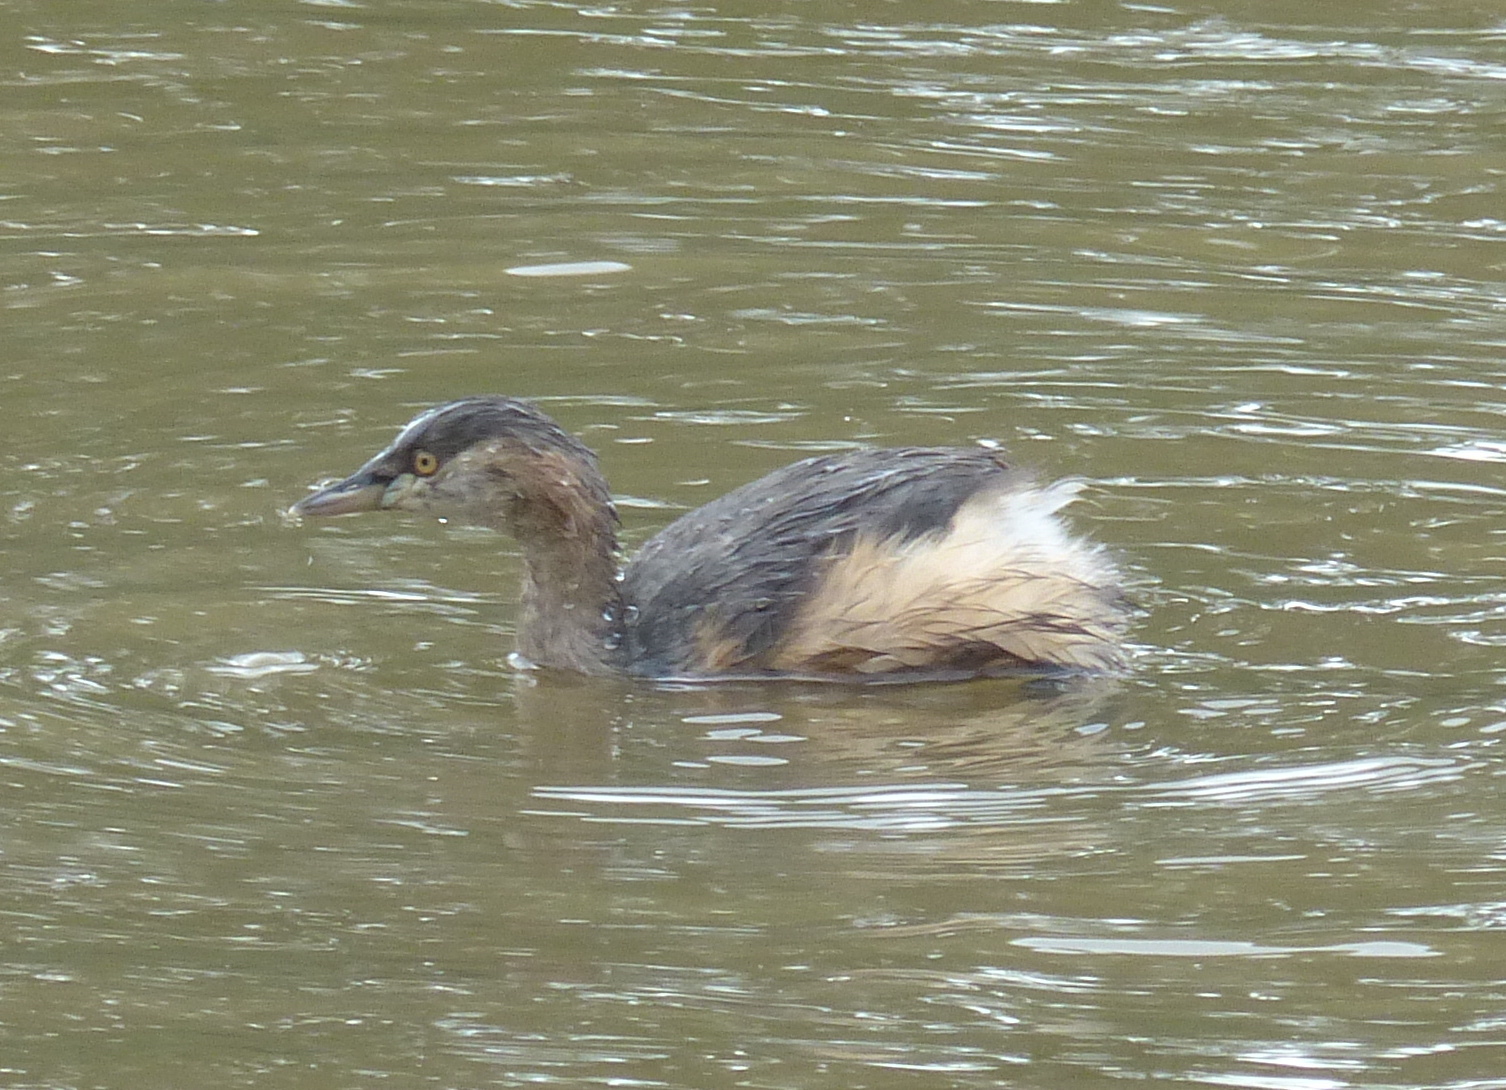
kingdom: Animalia
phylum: Chordata
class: Aves
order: Podicipediformes
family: Podicipedidae
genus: Tachybaptus
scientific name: Tachybaptus novaehollandiae
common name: Australasian grebe
